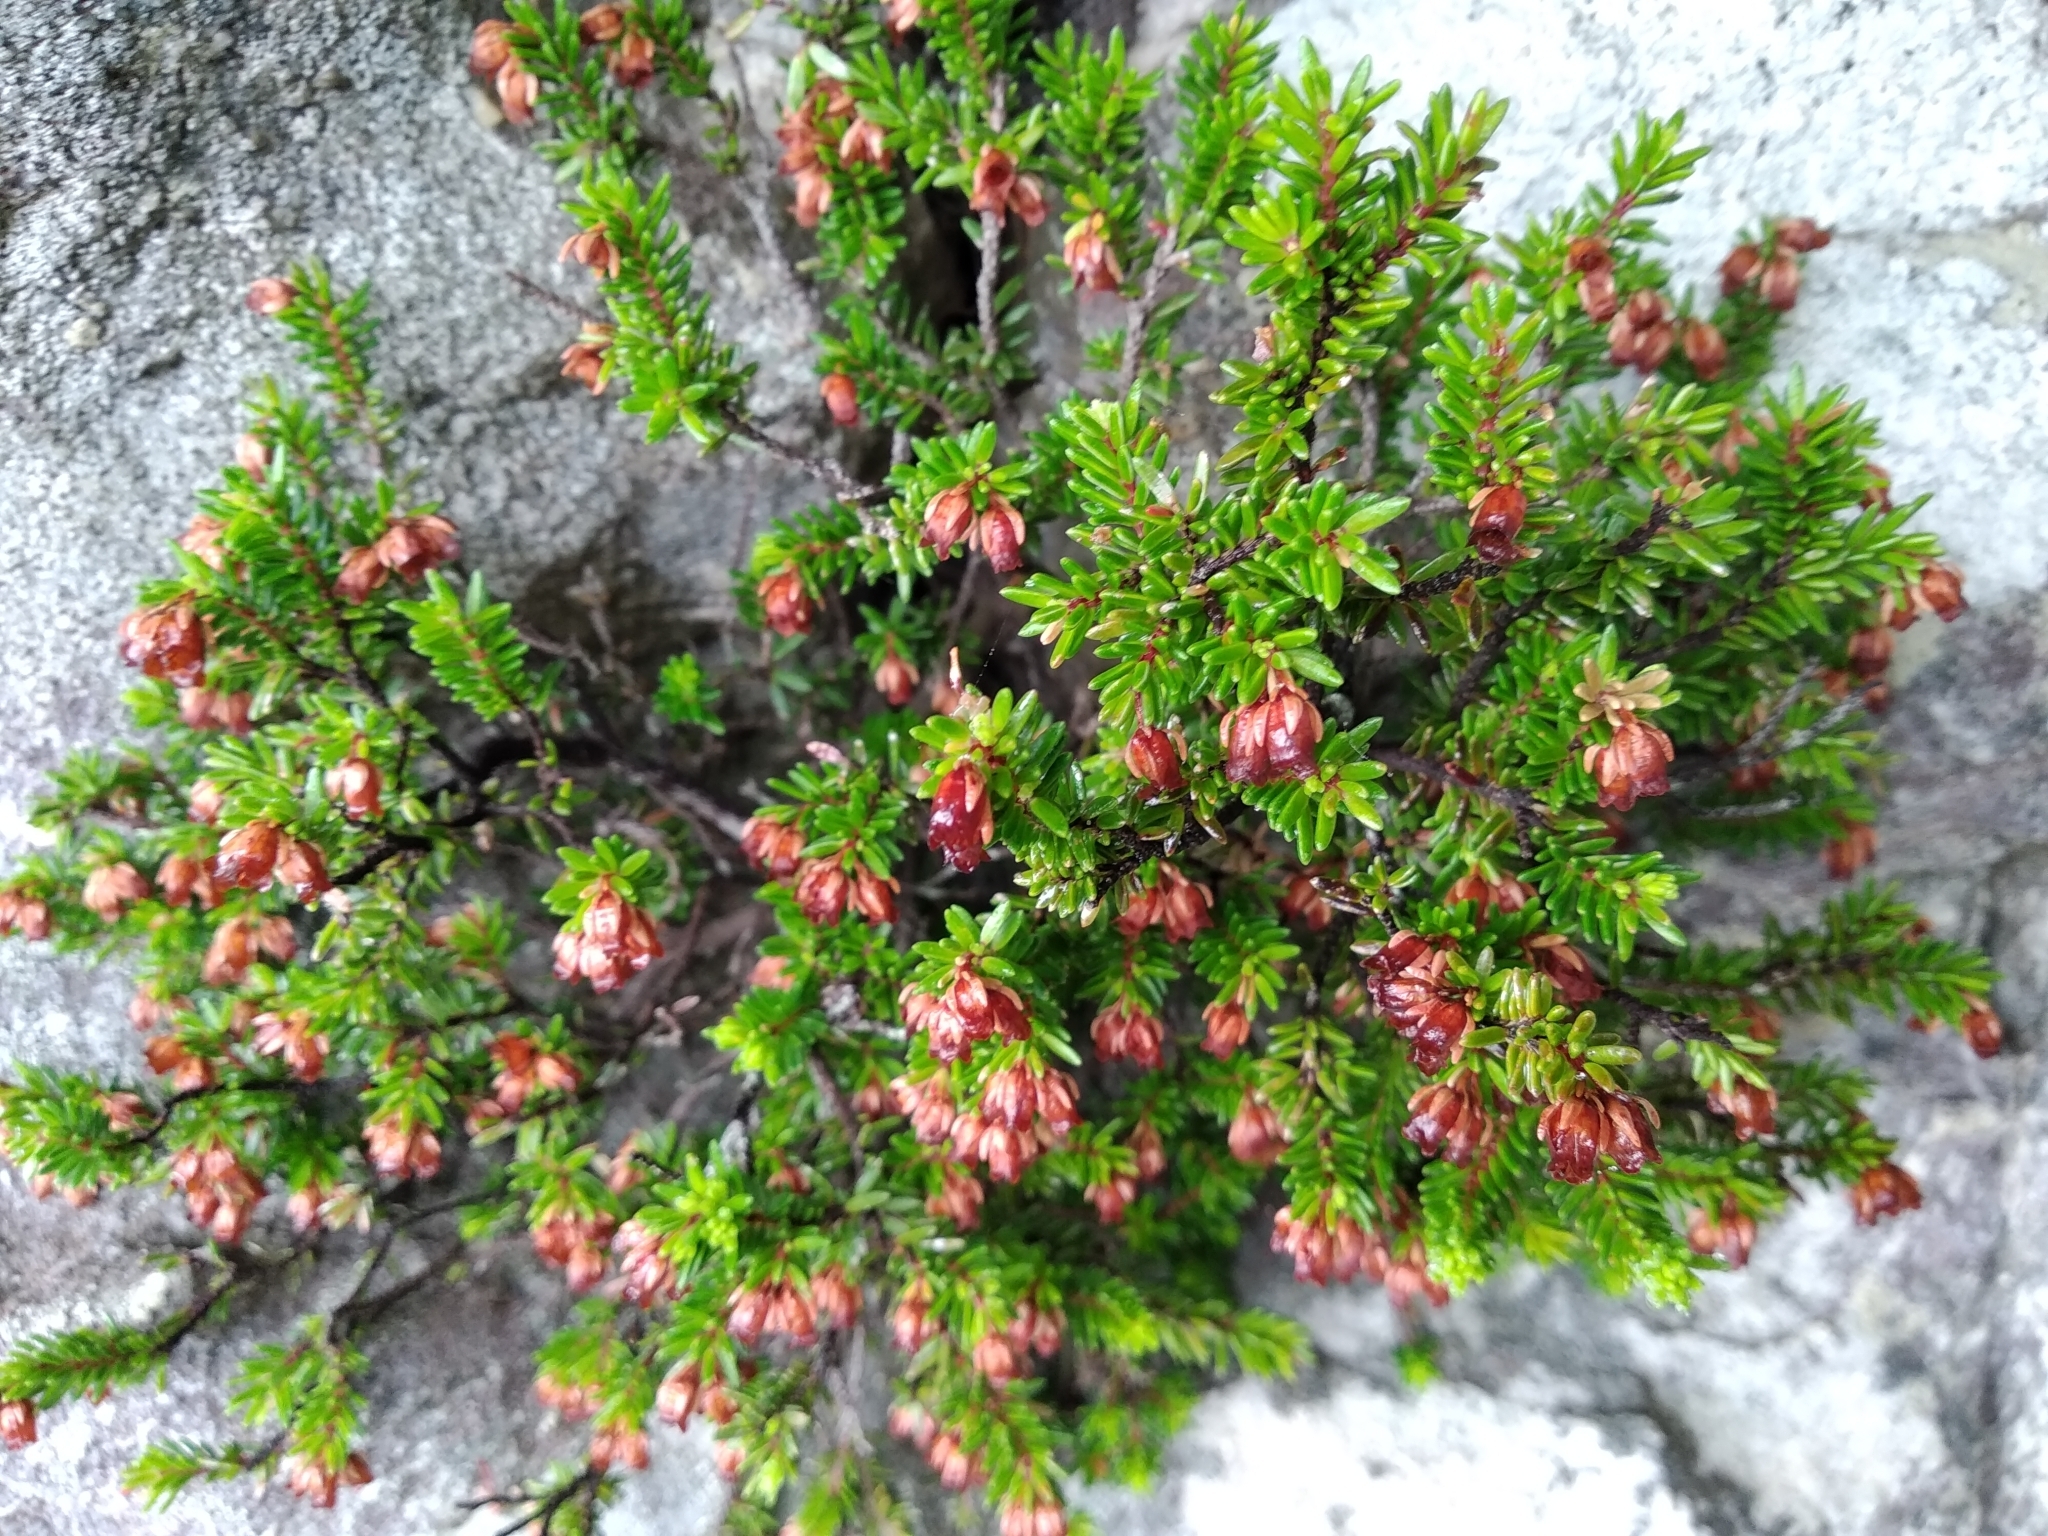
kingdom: Plantae
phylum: Tracheophyta
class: Magnoliopsida
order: Ericales
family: Ericaceae
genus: Erica
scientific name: Erica depressa
